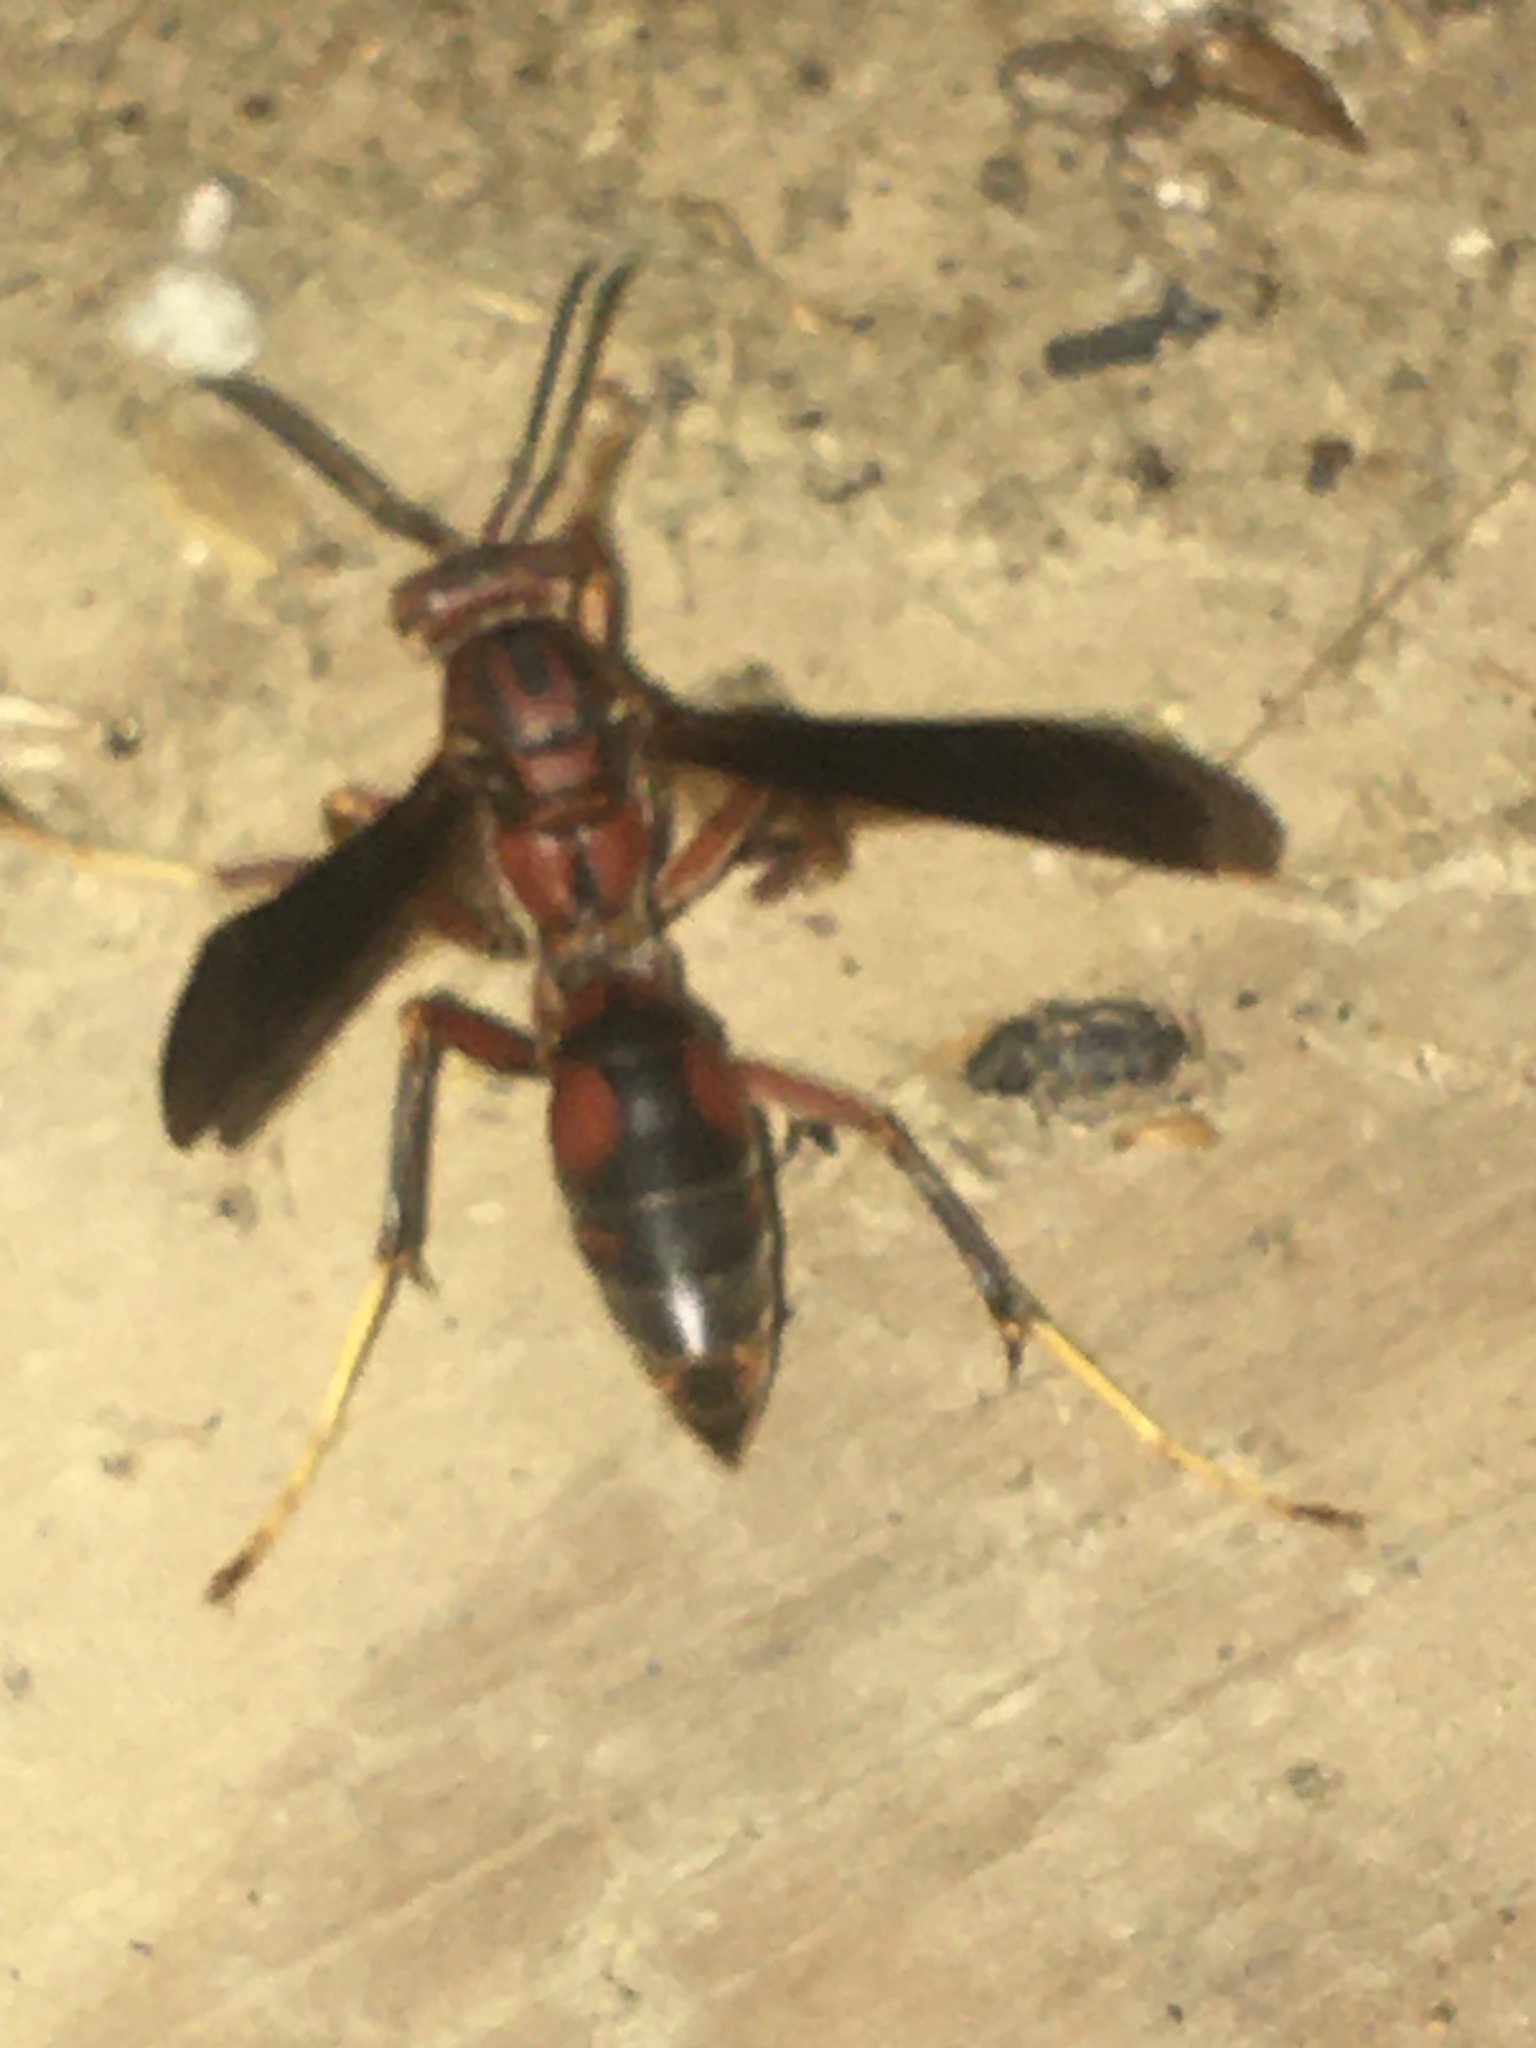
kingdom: Animalia
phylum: Arthropoda
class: Insecta
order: Hymenoptera
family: Eumenidae
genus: Polistes
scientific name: Polistes metricus
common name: Metric paper wasp
